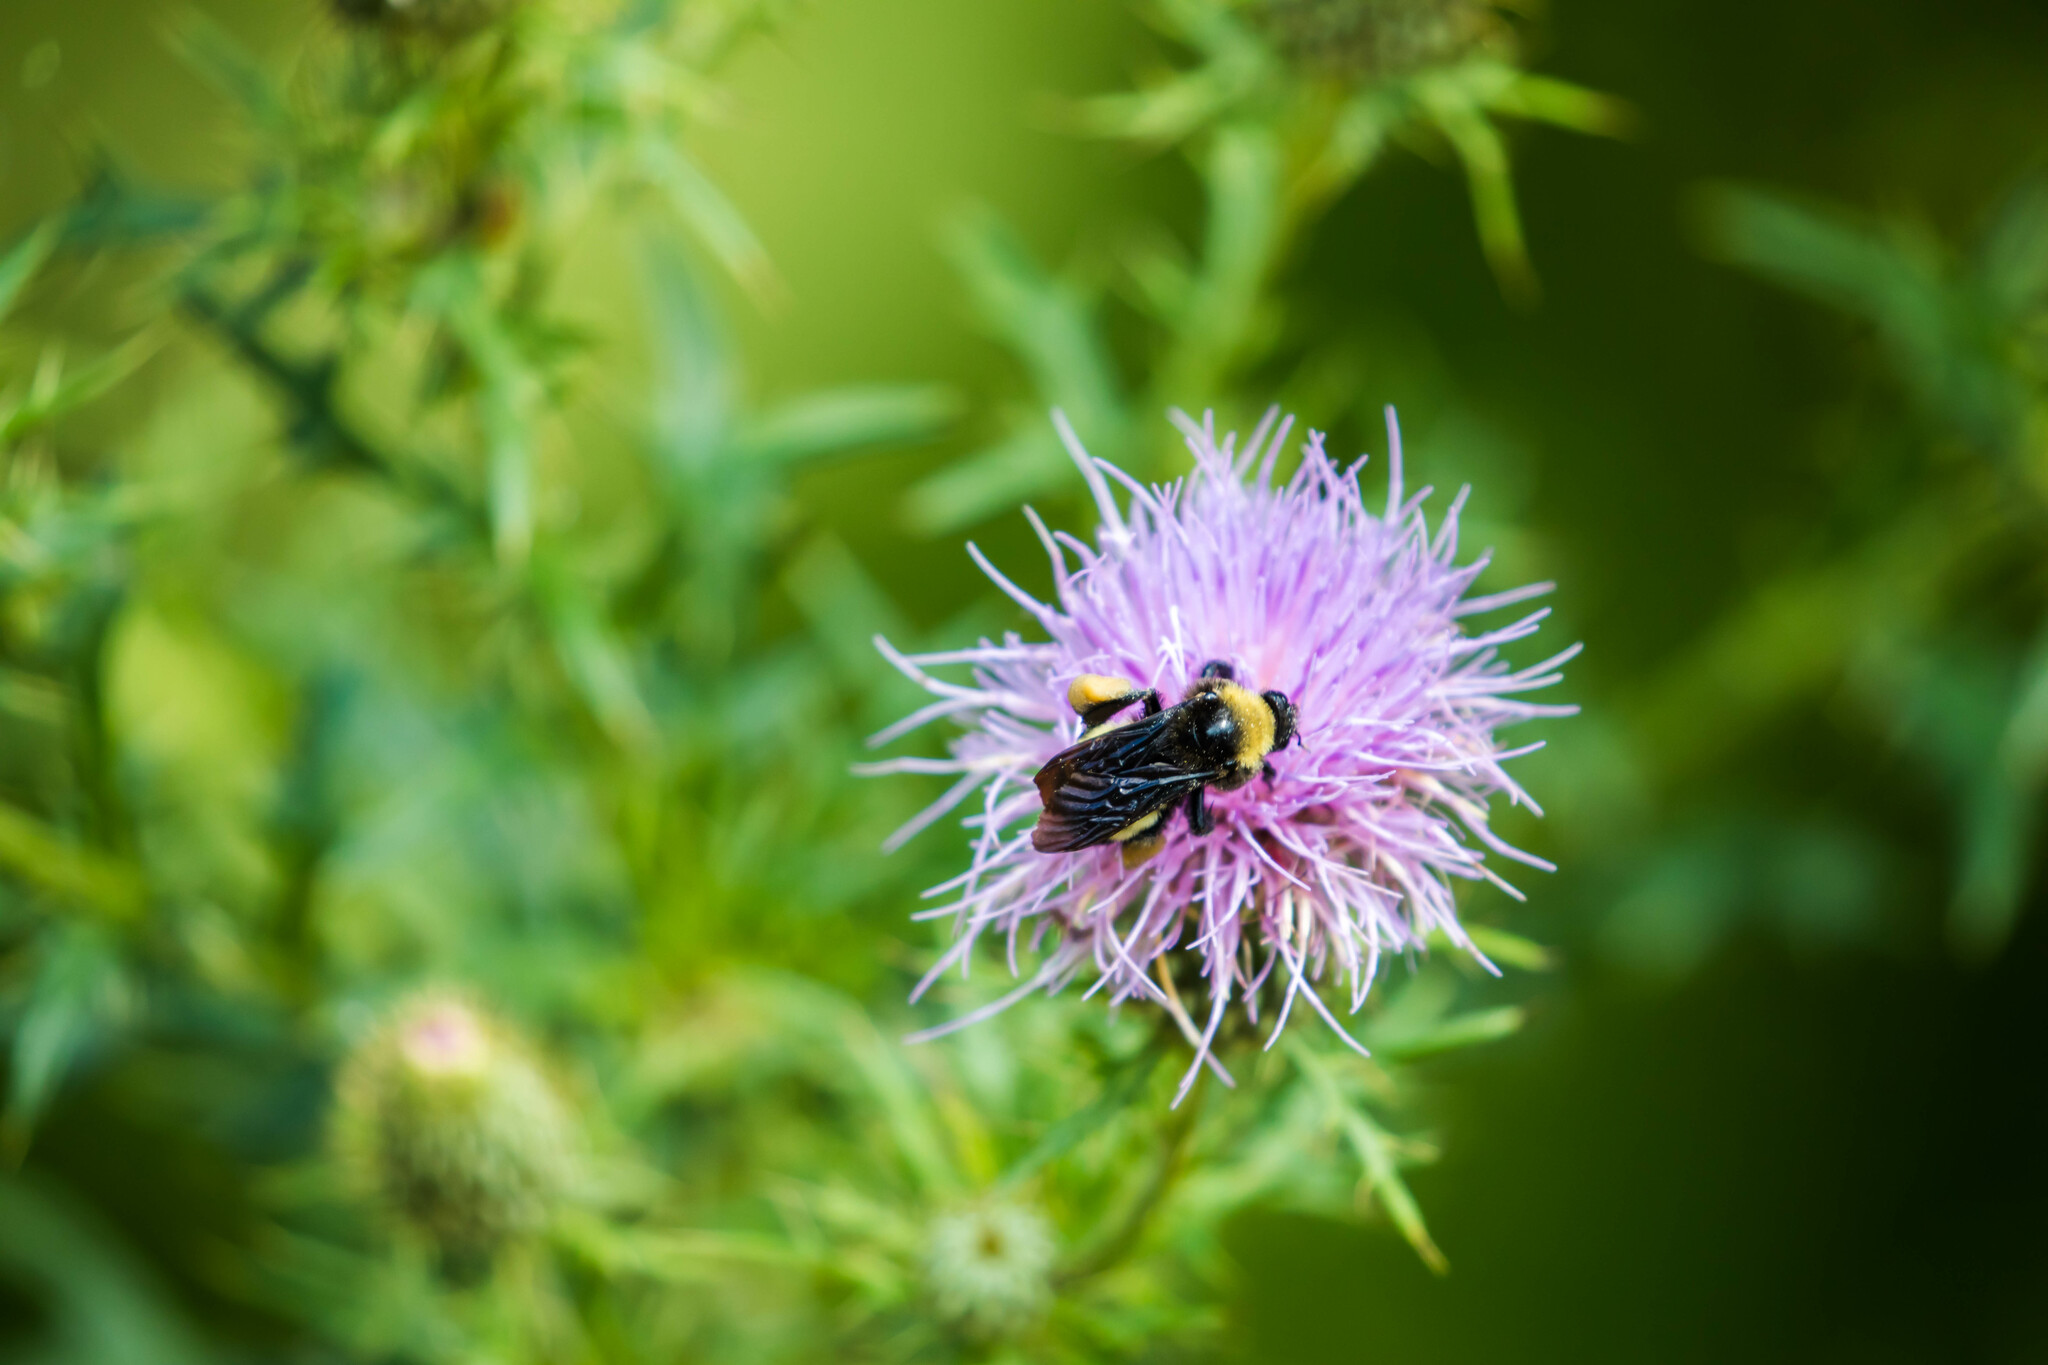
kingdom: Animalia
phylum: Arthropoda
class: Insecta
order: Hymenoptera
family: Apidae
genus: Bombus
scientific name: Bombus pensylvanicus
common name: Bumble bee
